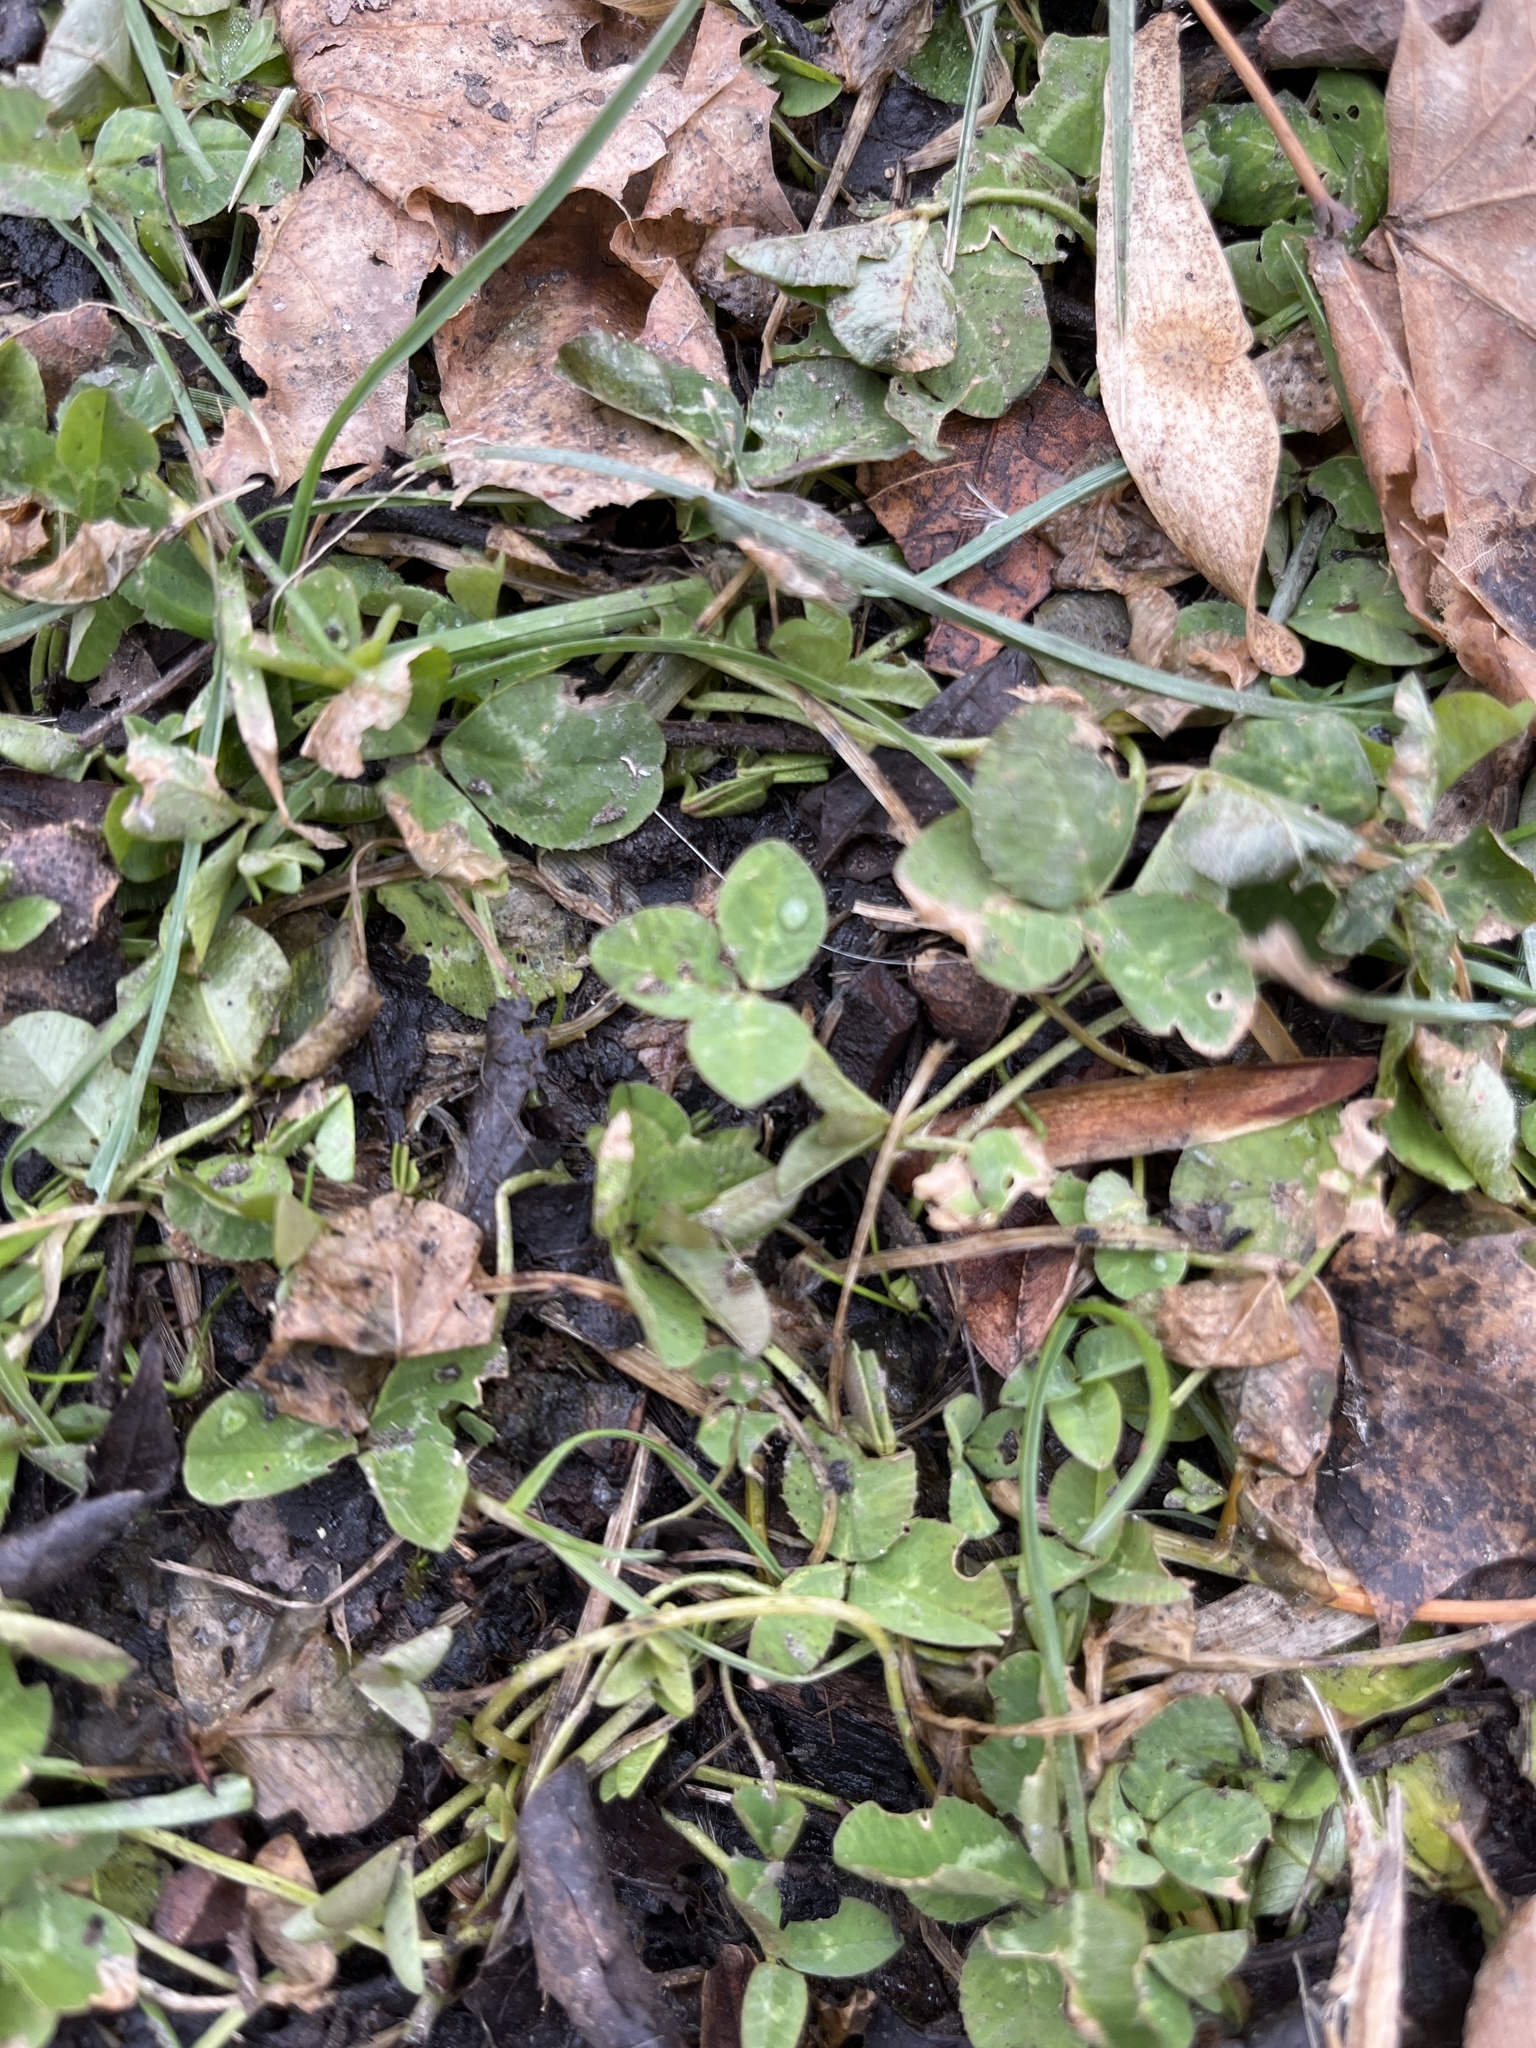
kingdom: Plantae
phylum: Tracheophyta
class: Magnoliopsida
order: Fabales
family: Fabaceae
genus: Trifolium
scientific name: Trifolium repens
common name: White clover
